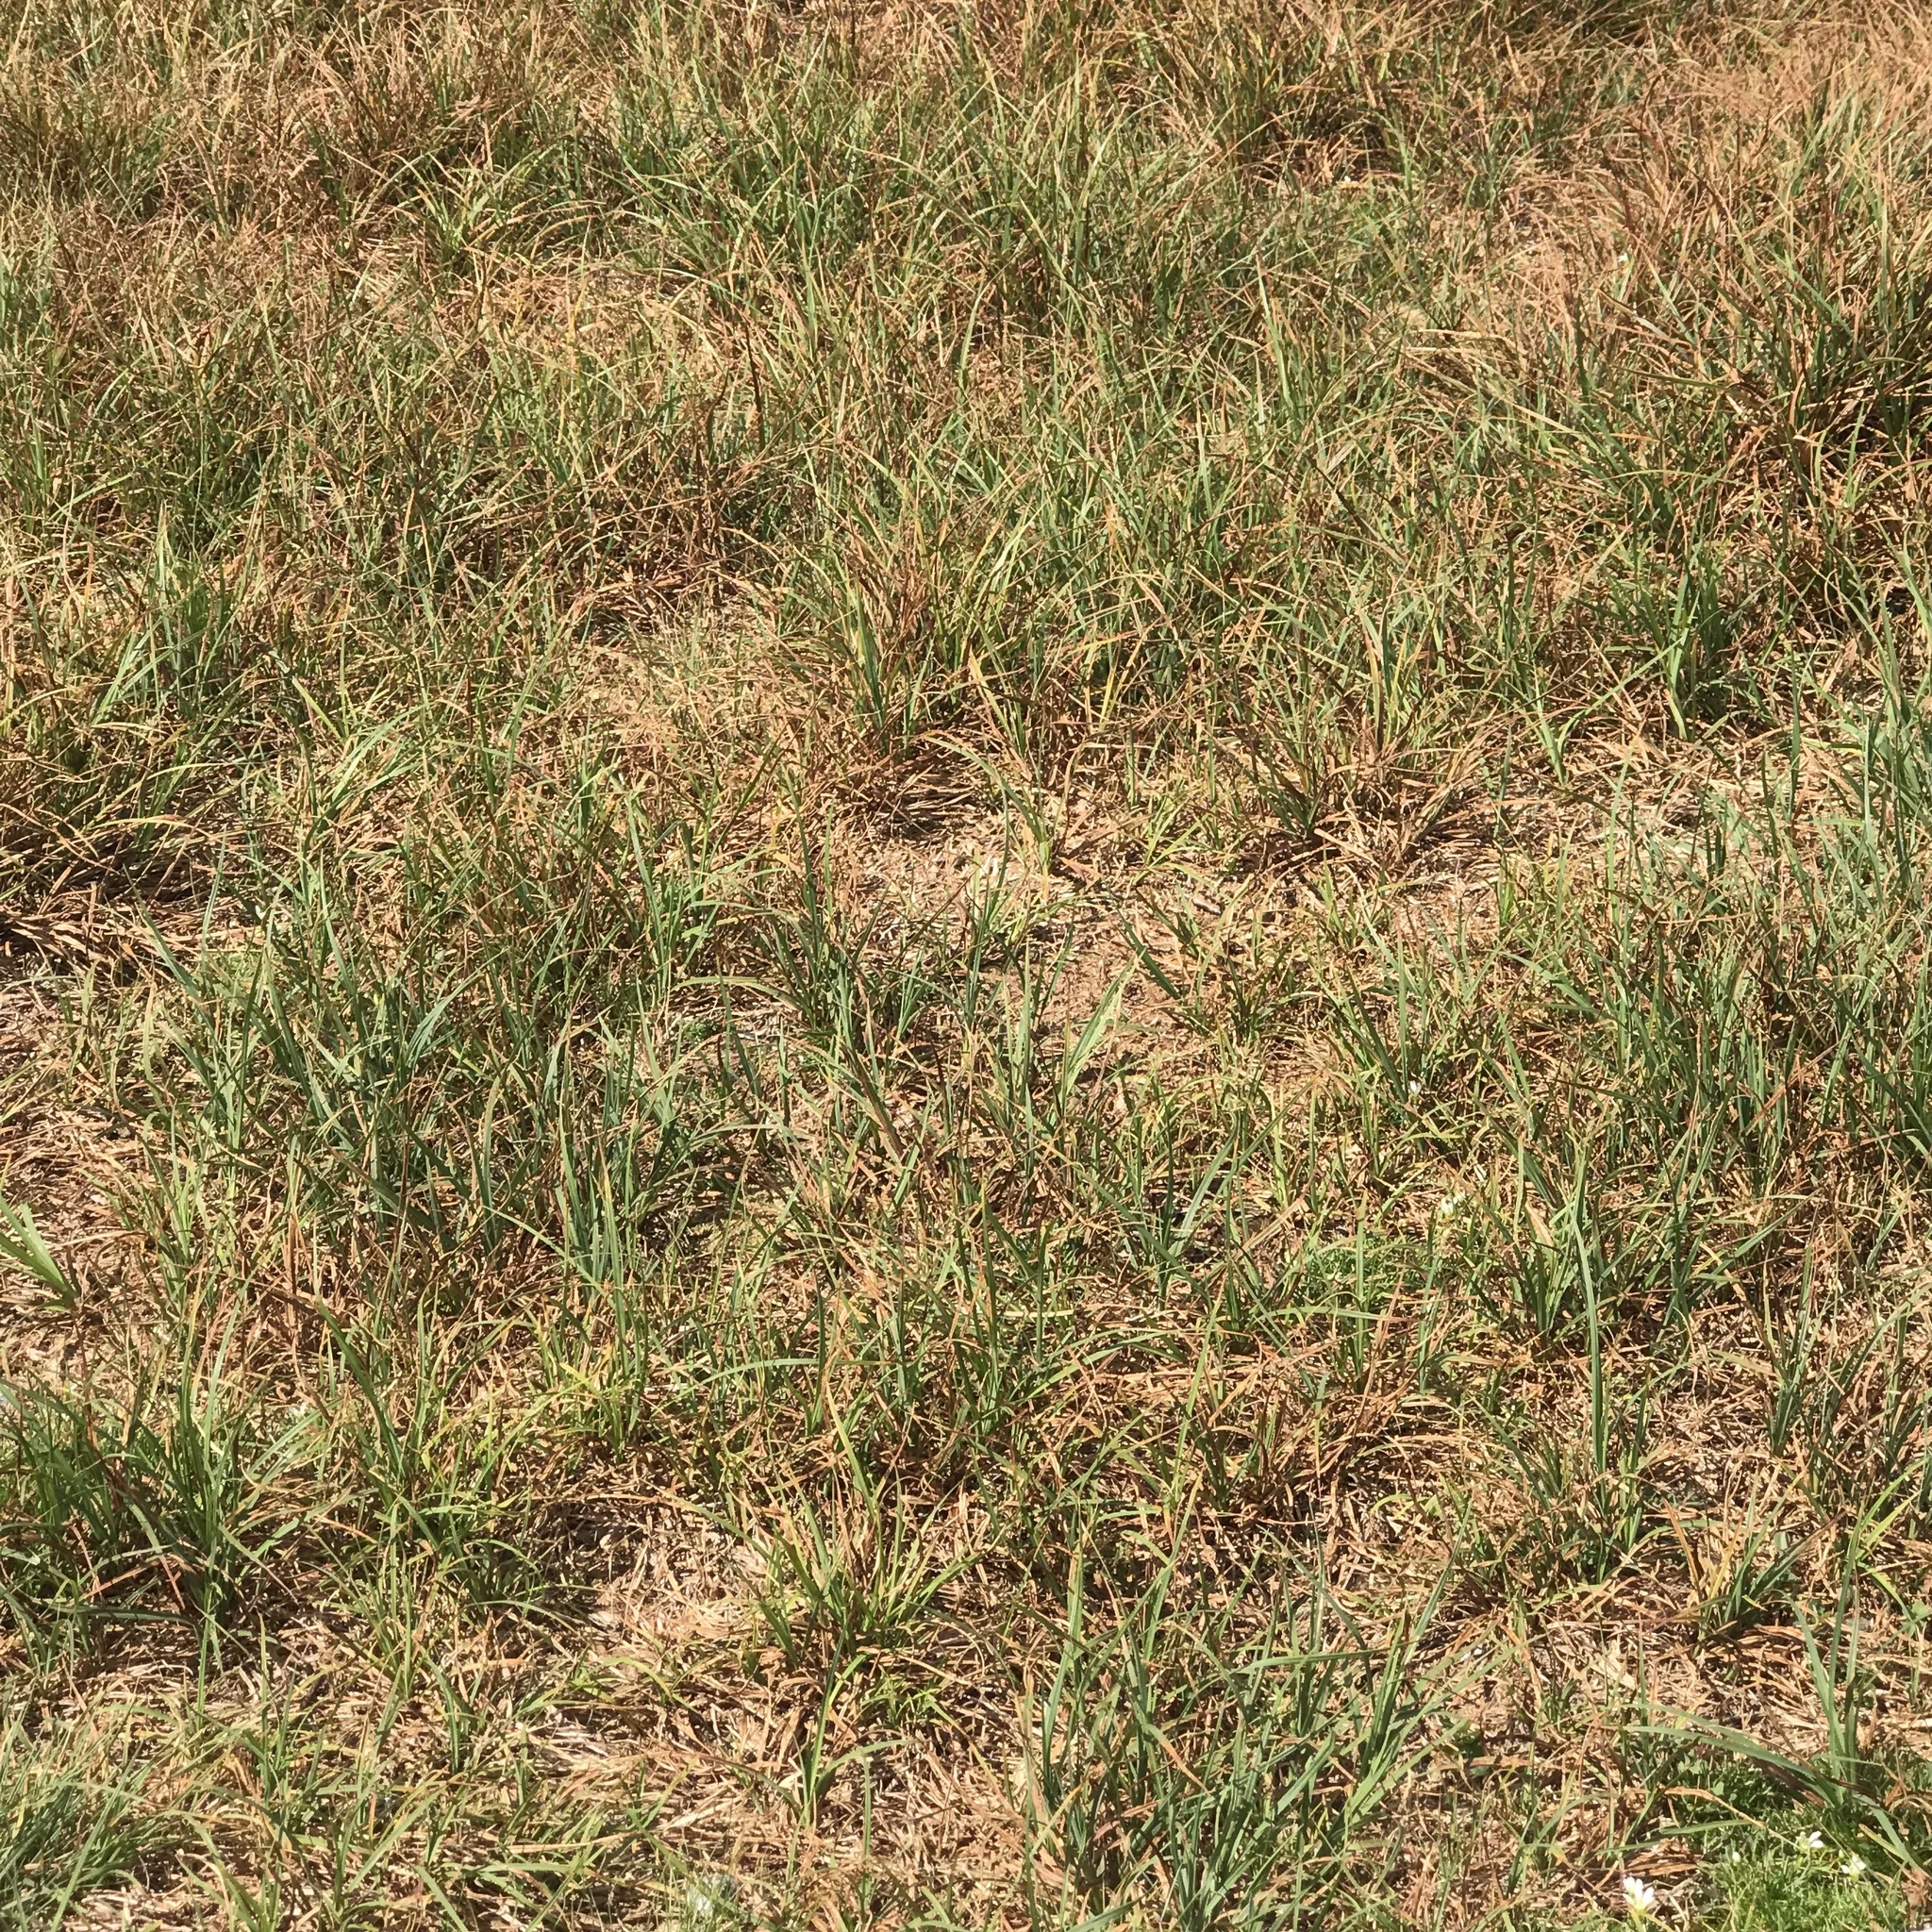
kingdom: Plantae
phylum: Tracheophyta
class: Liliopsida
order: Poales
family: Cyperaceae
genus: Carex
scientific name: Carex bigelowii
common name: Stiff sedge
